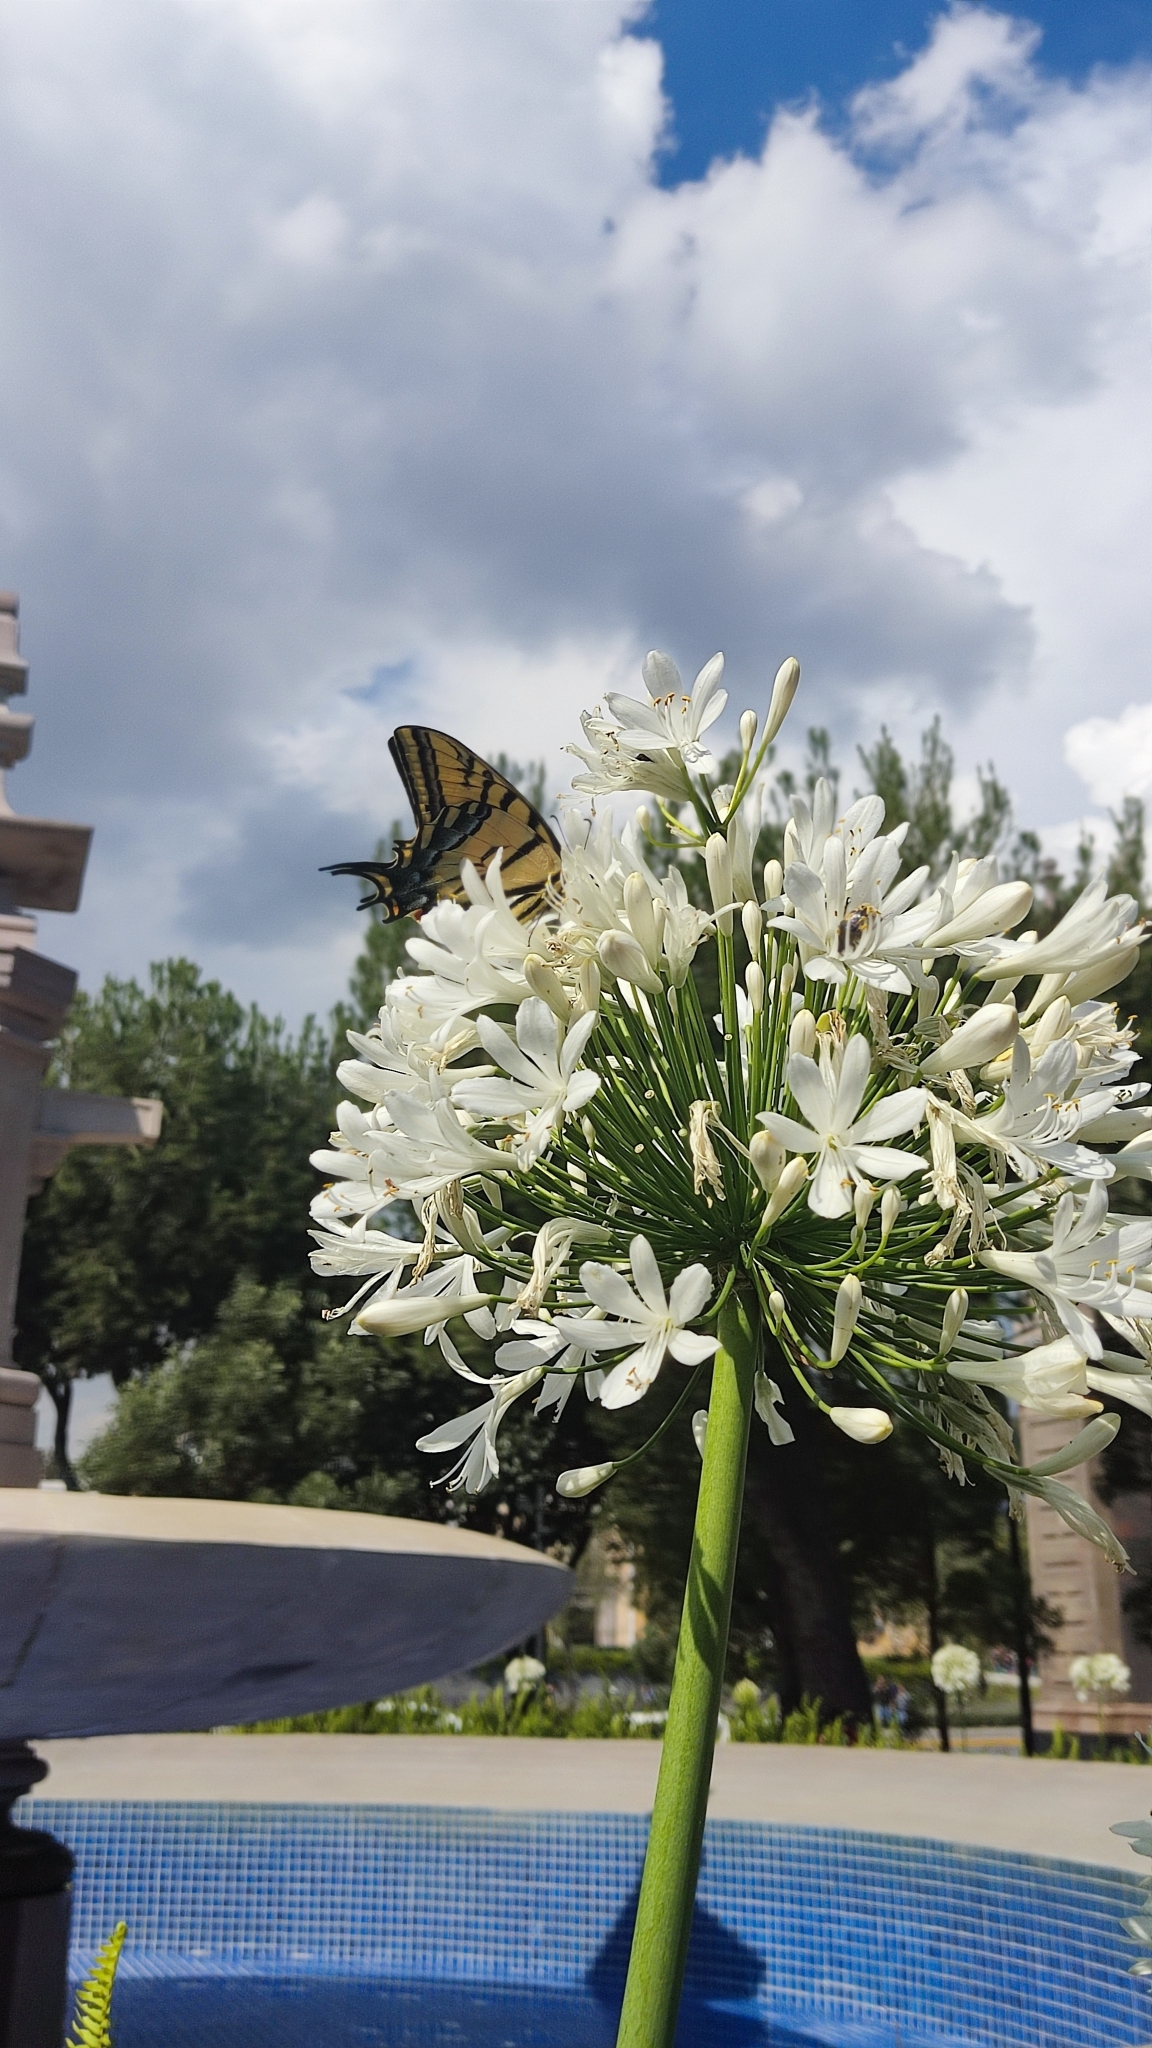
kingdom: Animalia
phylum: Arthropoda
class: Insecta
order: Lepidoptera
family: Papilionidae
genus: Papilio
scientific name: Papilio multicaudata
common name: Two-tailed tiger swallowtail
